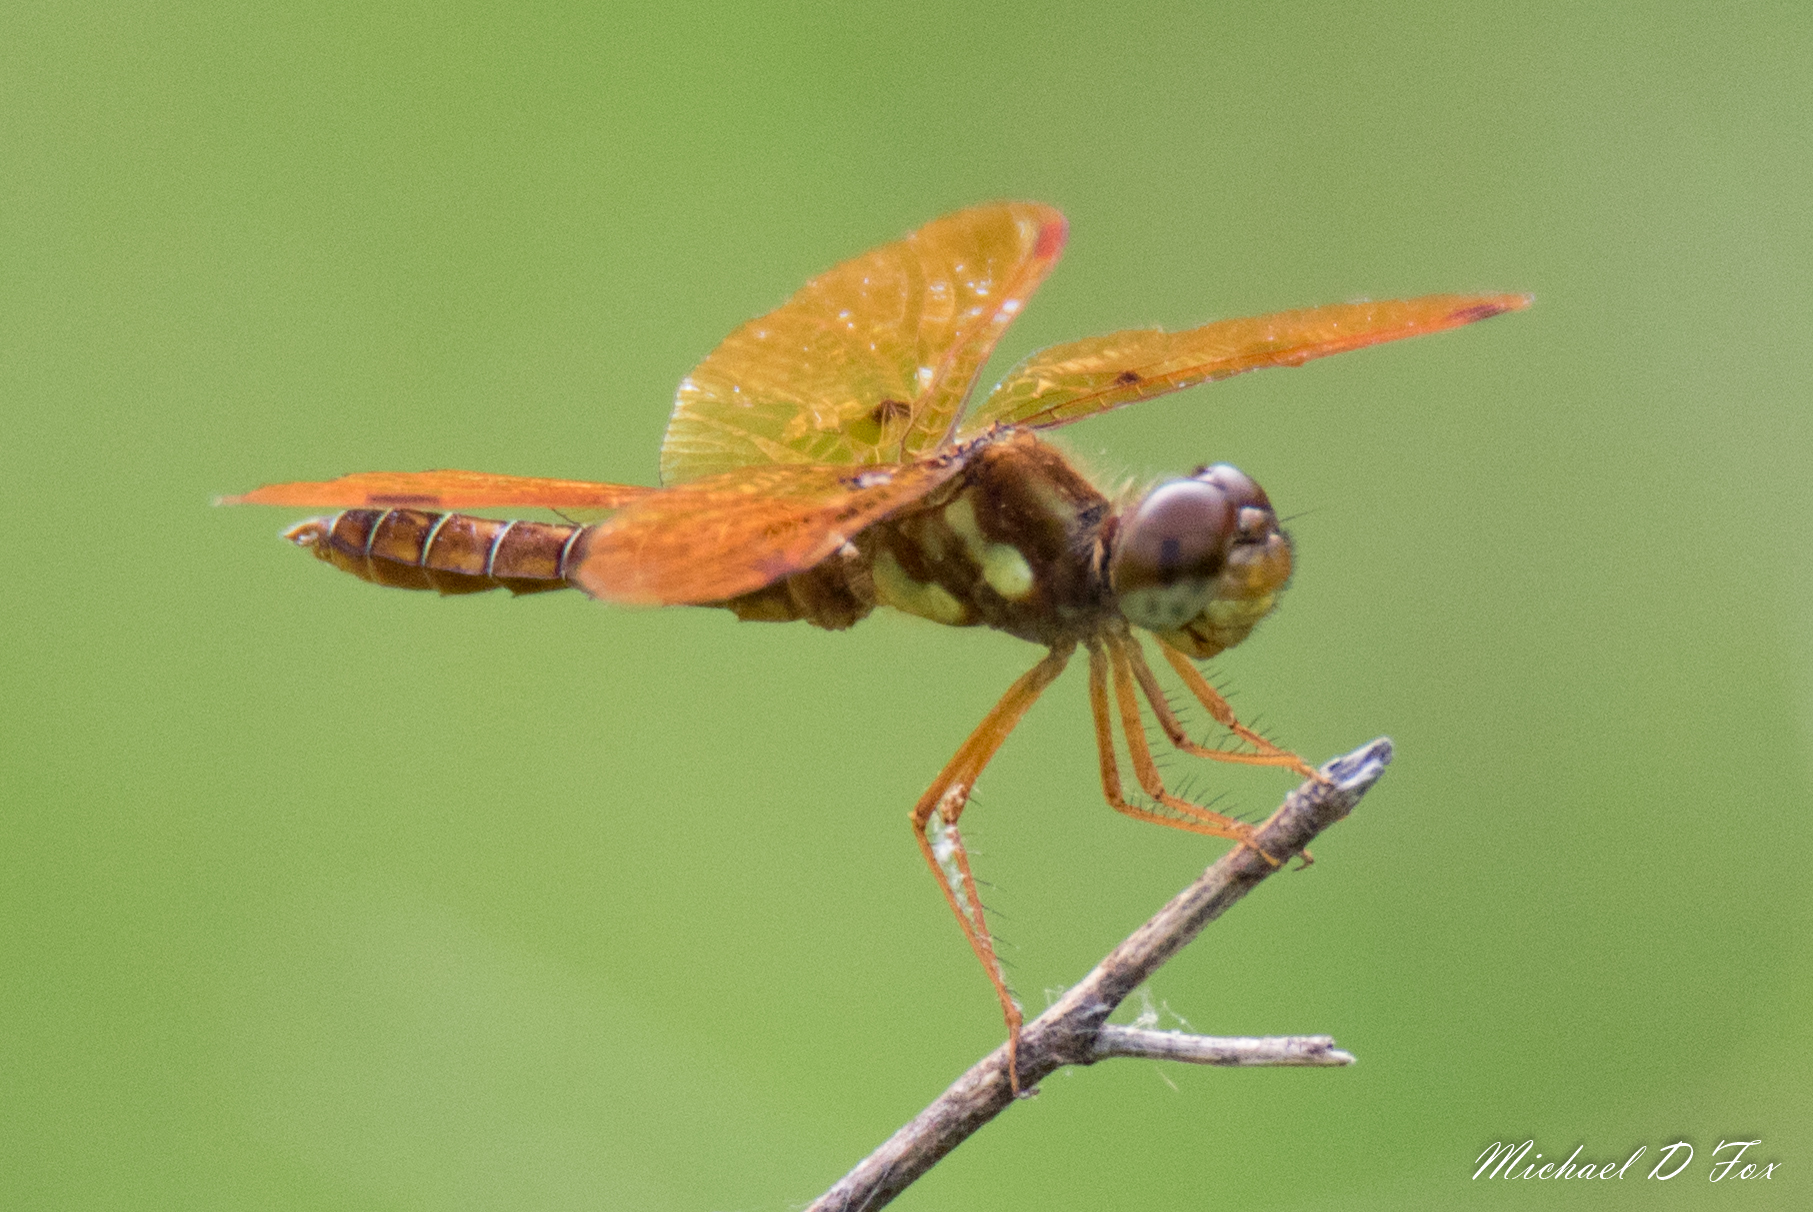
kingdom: Animalia
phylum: Arthropoda
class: Insecta
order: Odonata
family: Libellulidae
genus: Perithemis
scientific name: Perithemis tenera
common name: Eastern amberwing
